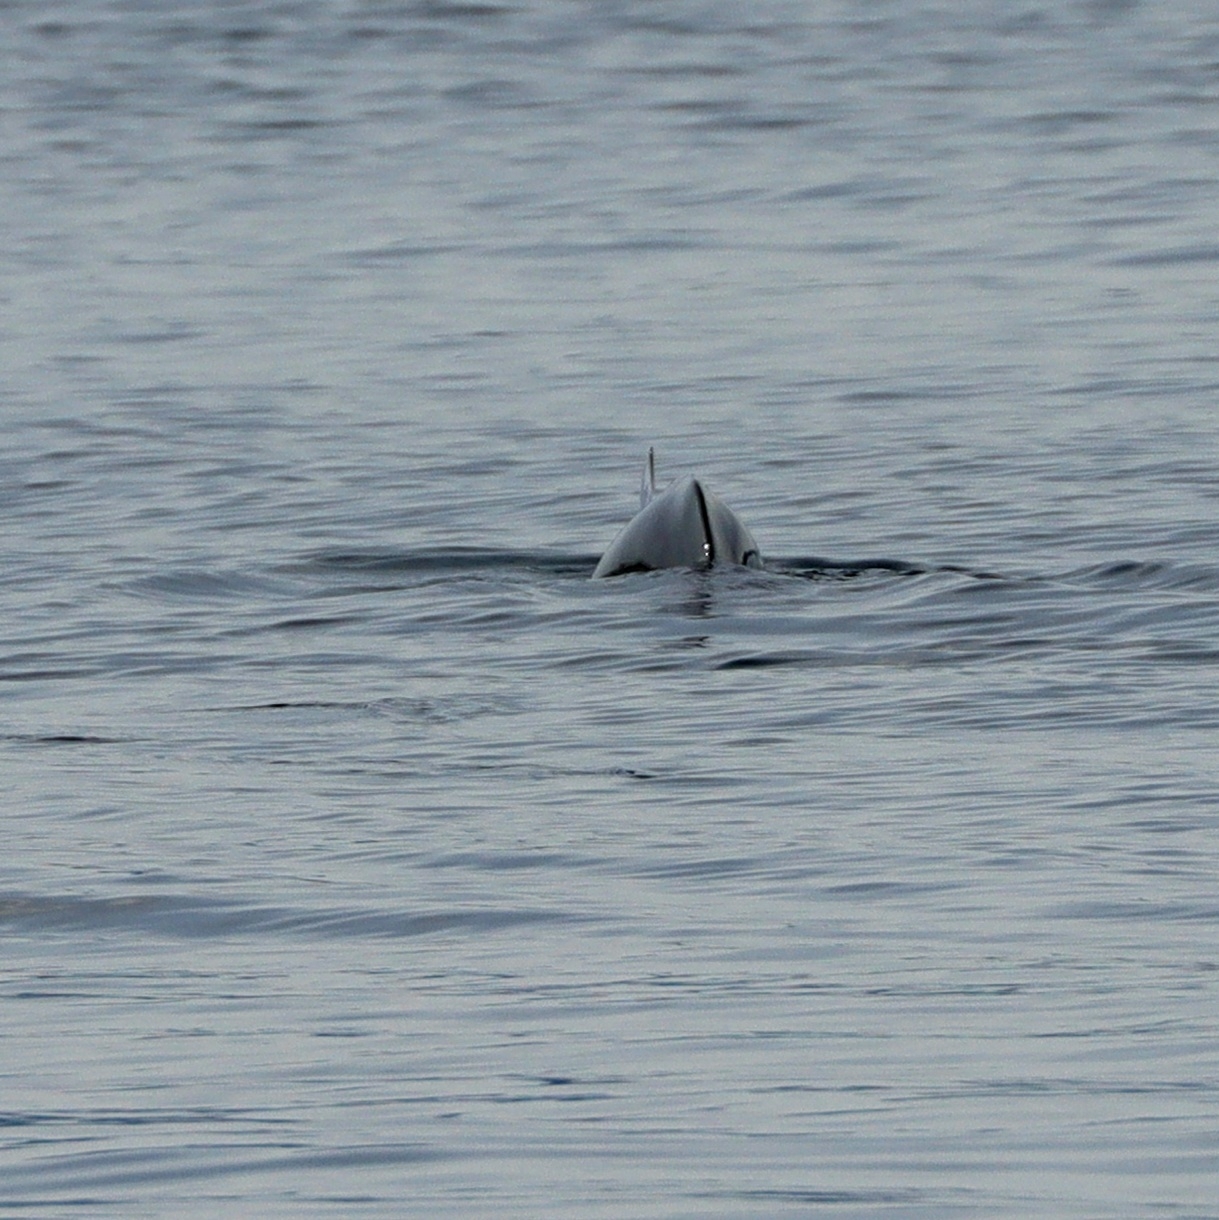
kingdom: Animalia
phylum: Chordata
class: Mammalia
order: Cetacea
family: Phocoenidae
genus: Phocoenoides
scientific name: Phocoenoides dalli
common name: Dall's porpoise
